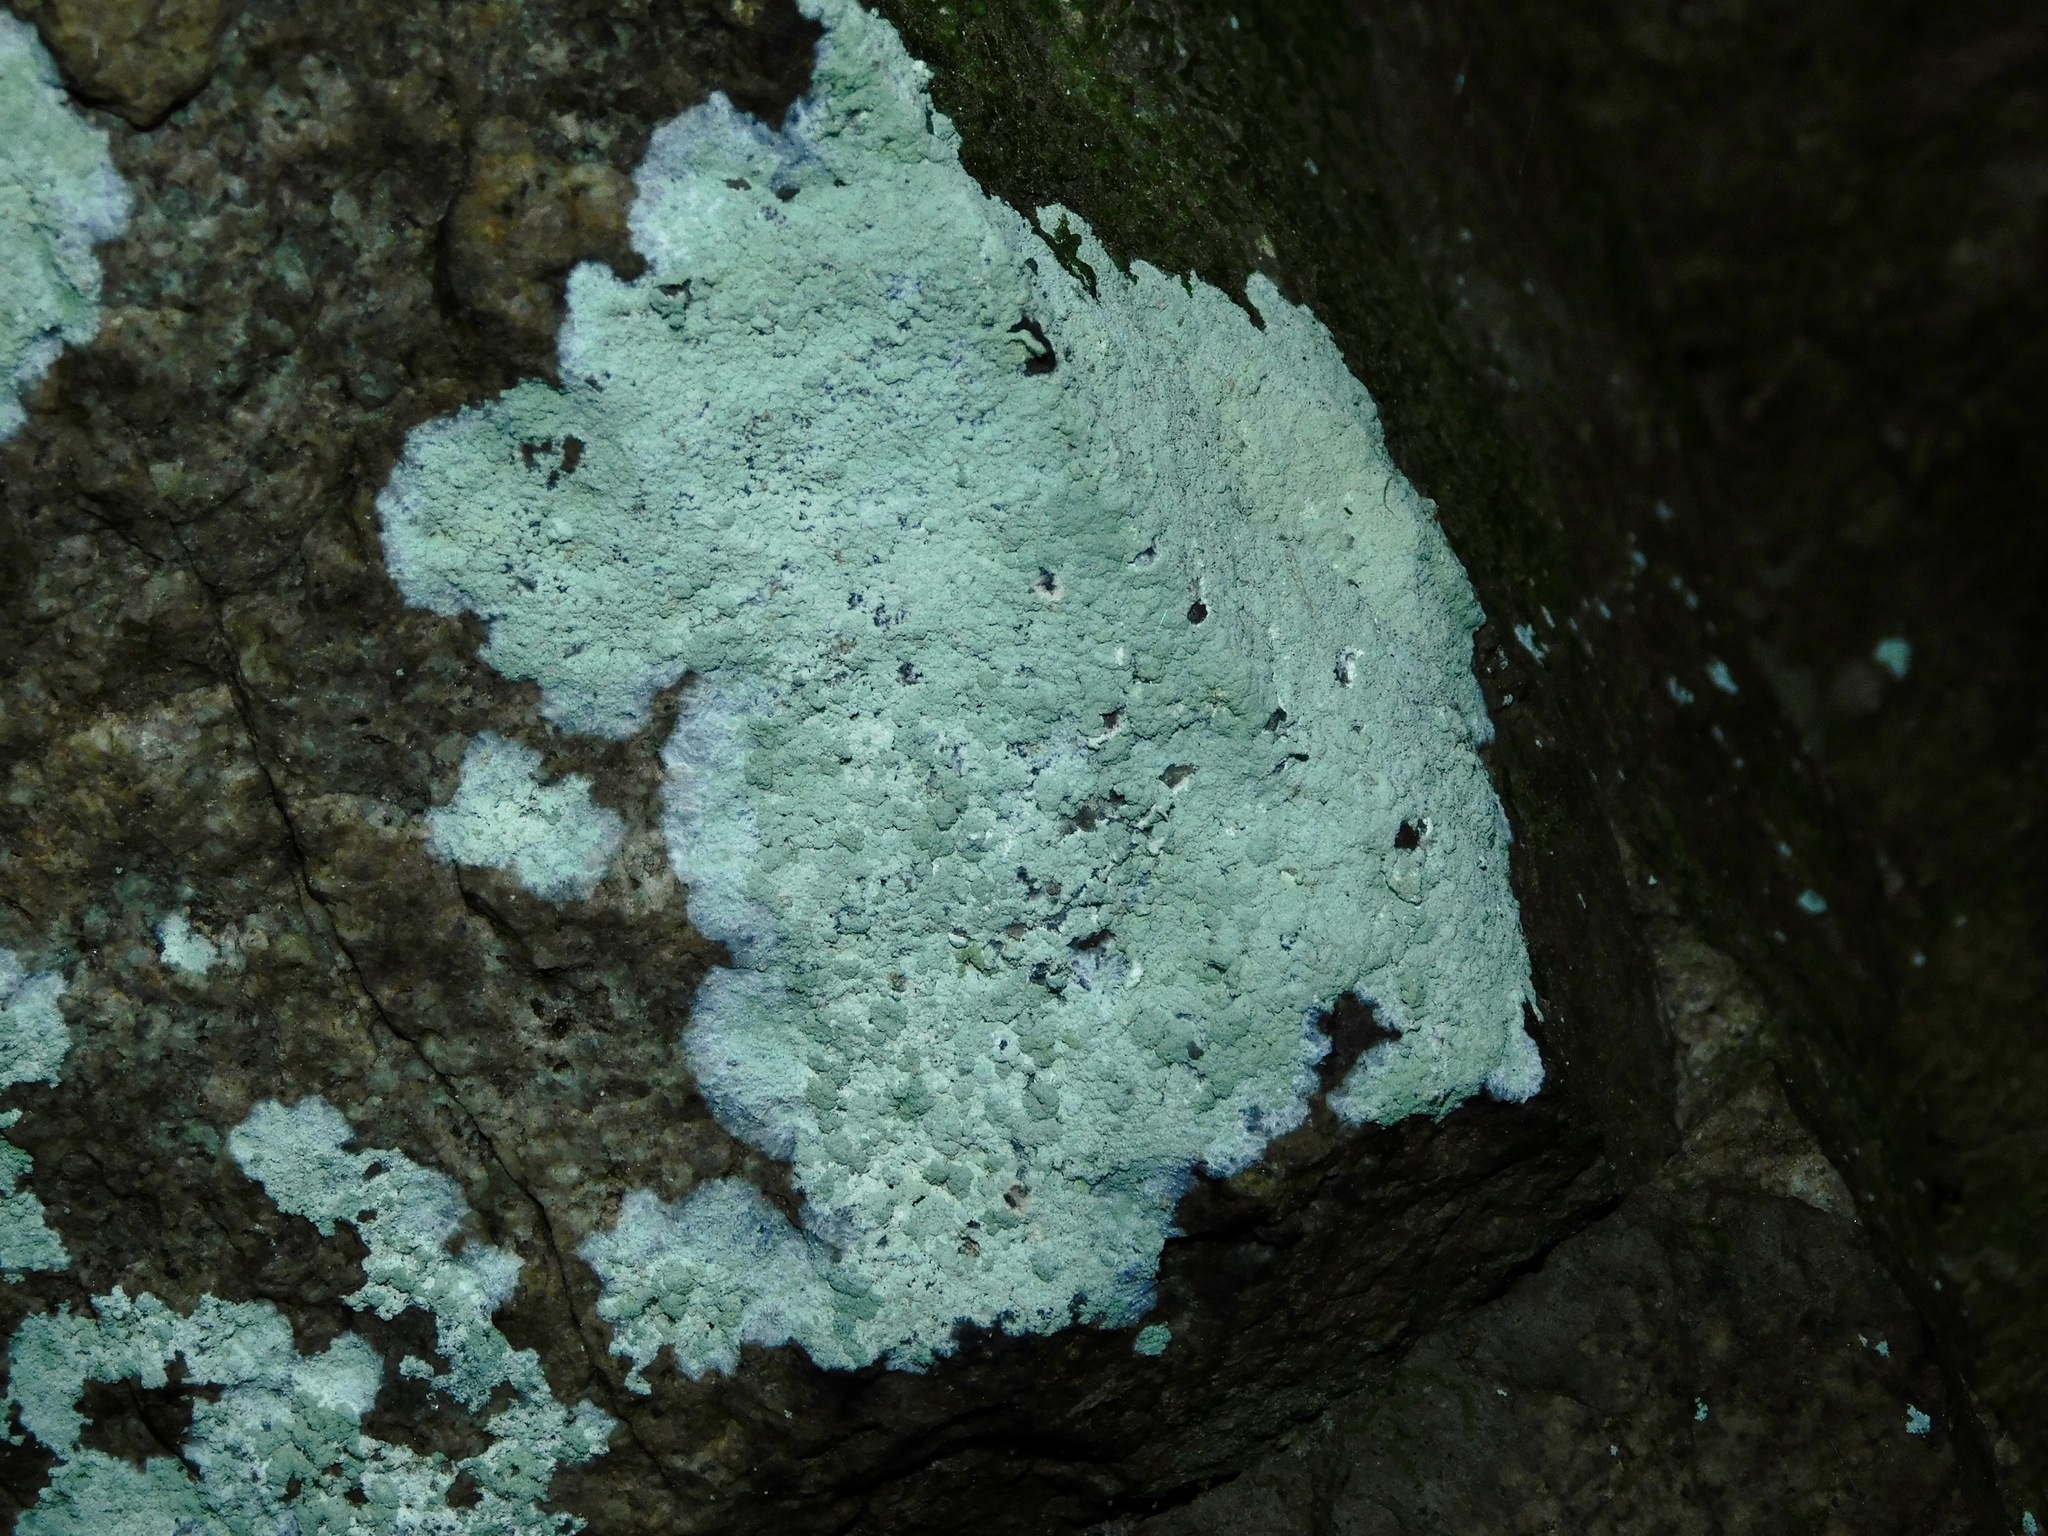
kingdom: Fungi
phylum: Ascomycota
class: Lecanoromycetes
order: Lecanorales
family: Stereocaulaceae
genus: Lepraria
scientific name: Lepraria lobificans
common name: Fluffy dust lichen
